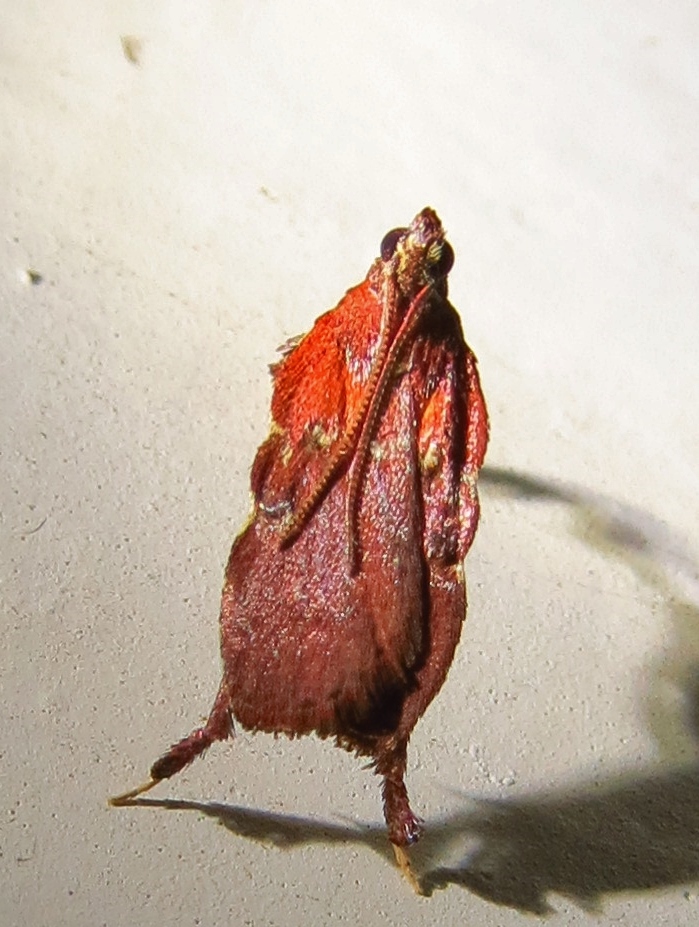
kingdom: Animalia
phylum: Arthropoda
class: Insecta
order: Lepidoptera
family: Pyralidae
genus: Galasa
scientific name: Galasa nigrinodis
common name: Boxwood leaftier moth
